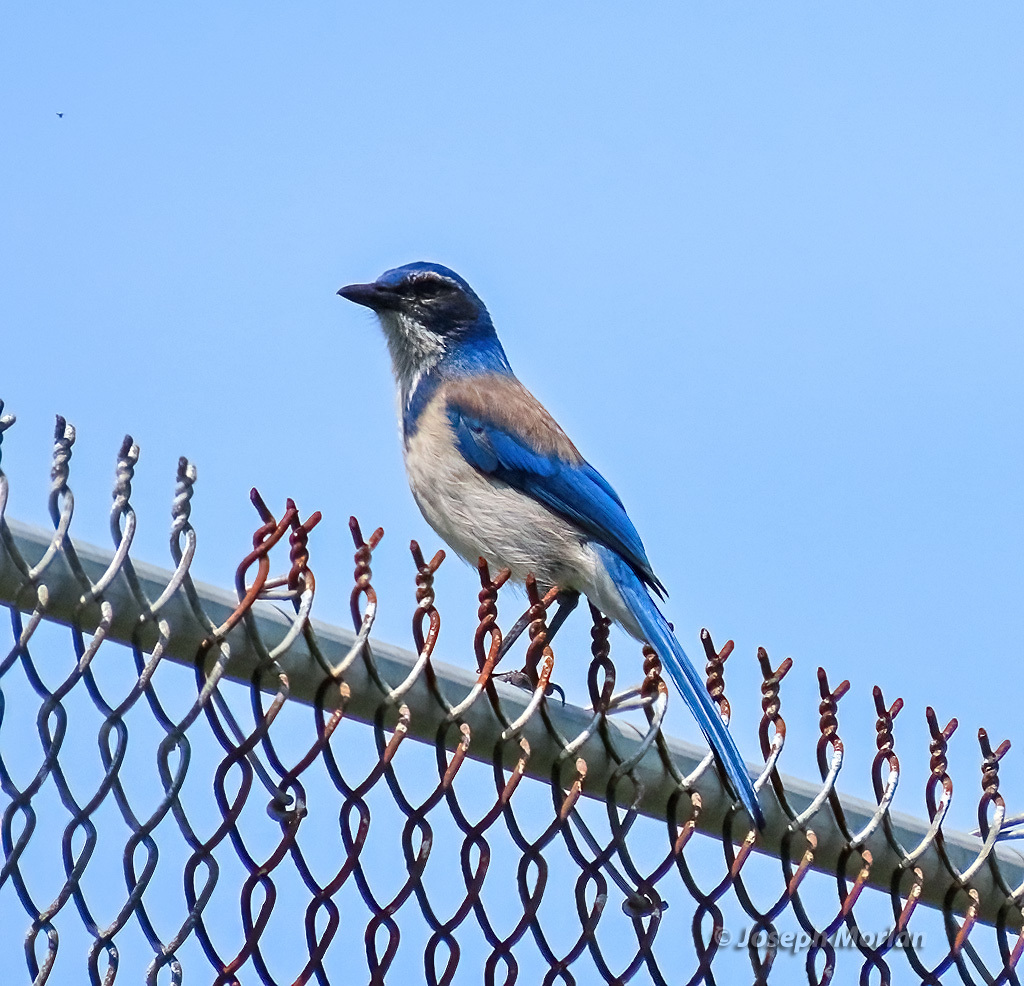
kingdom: Animalia
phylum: Chordata
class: Aves
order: Passeriformes
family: Corvidae
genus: Aphelocoma
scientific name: Aphelocoma californica
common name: California scrub-jay
